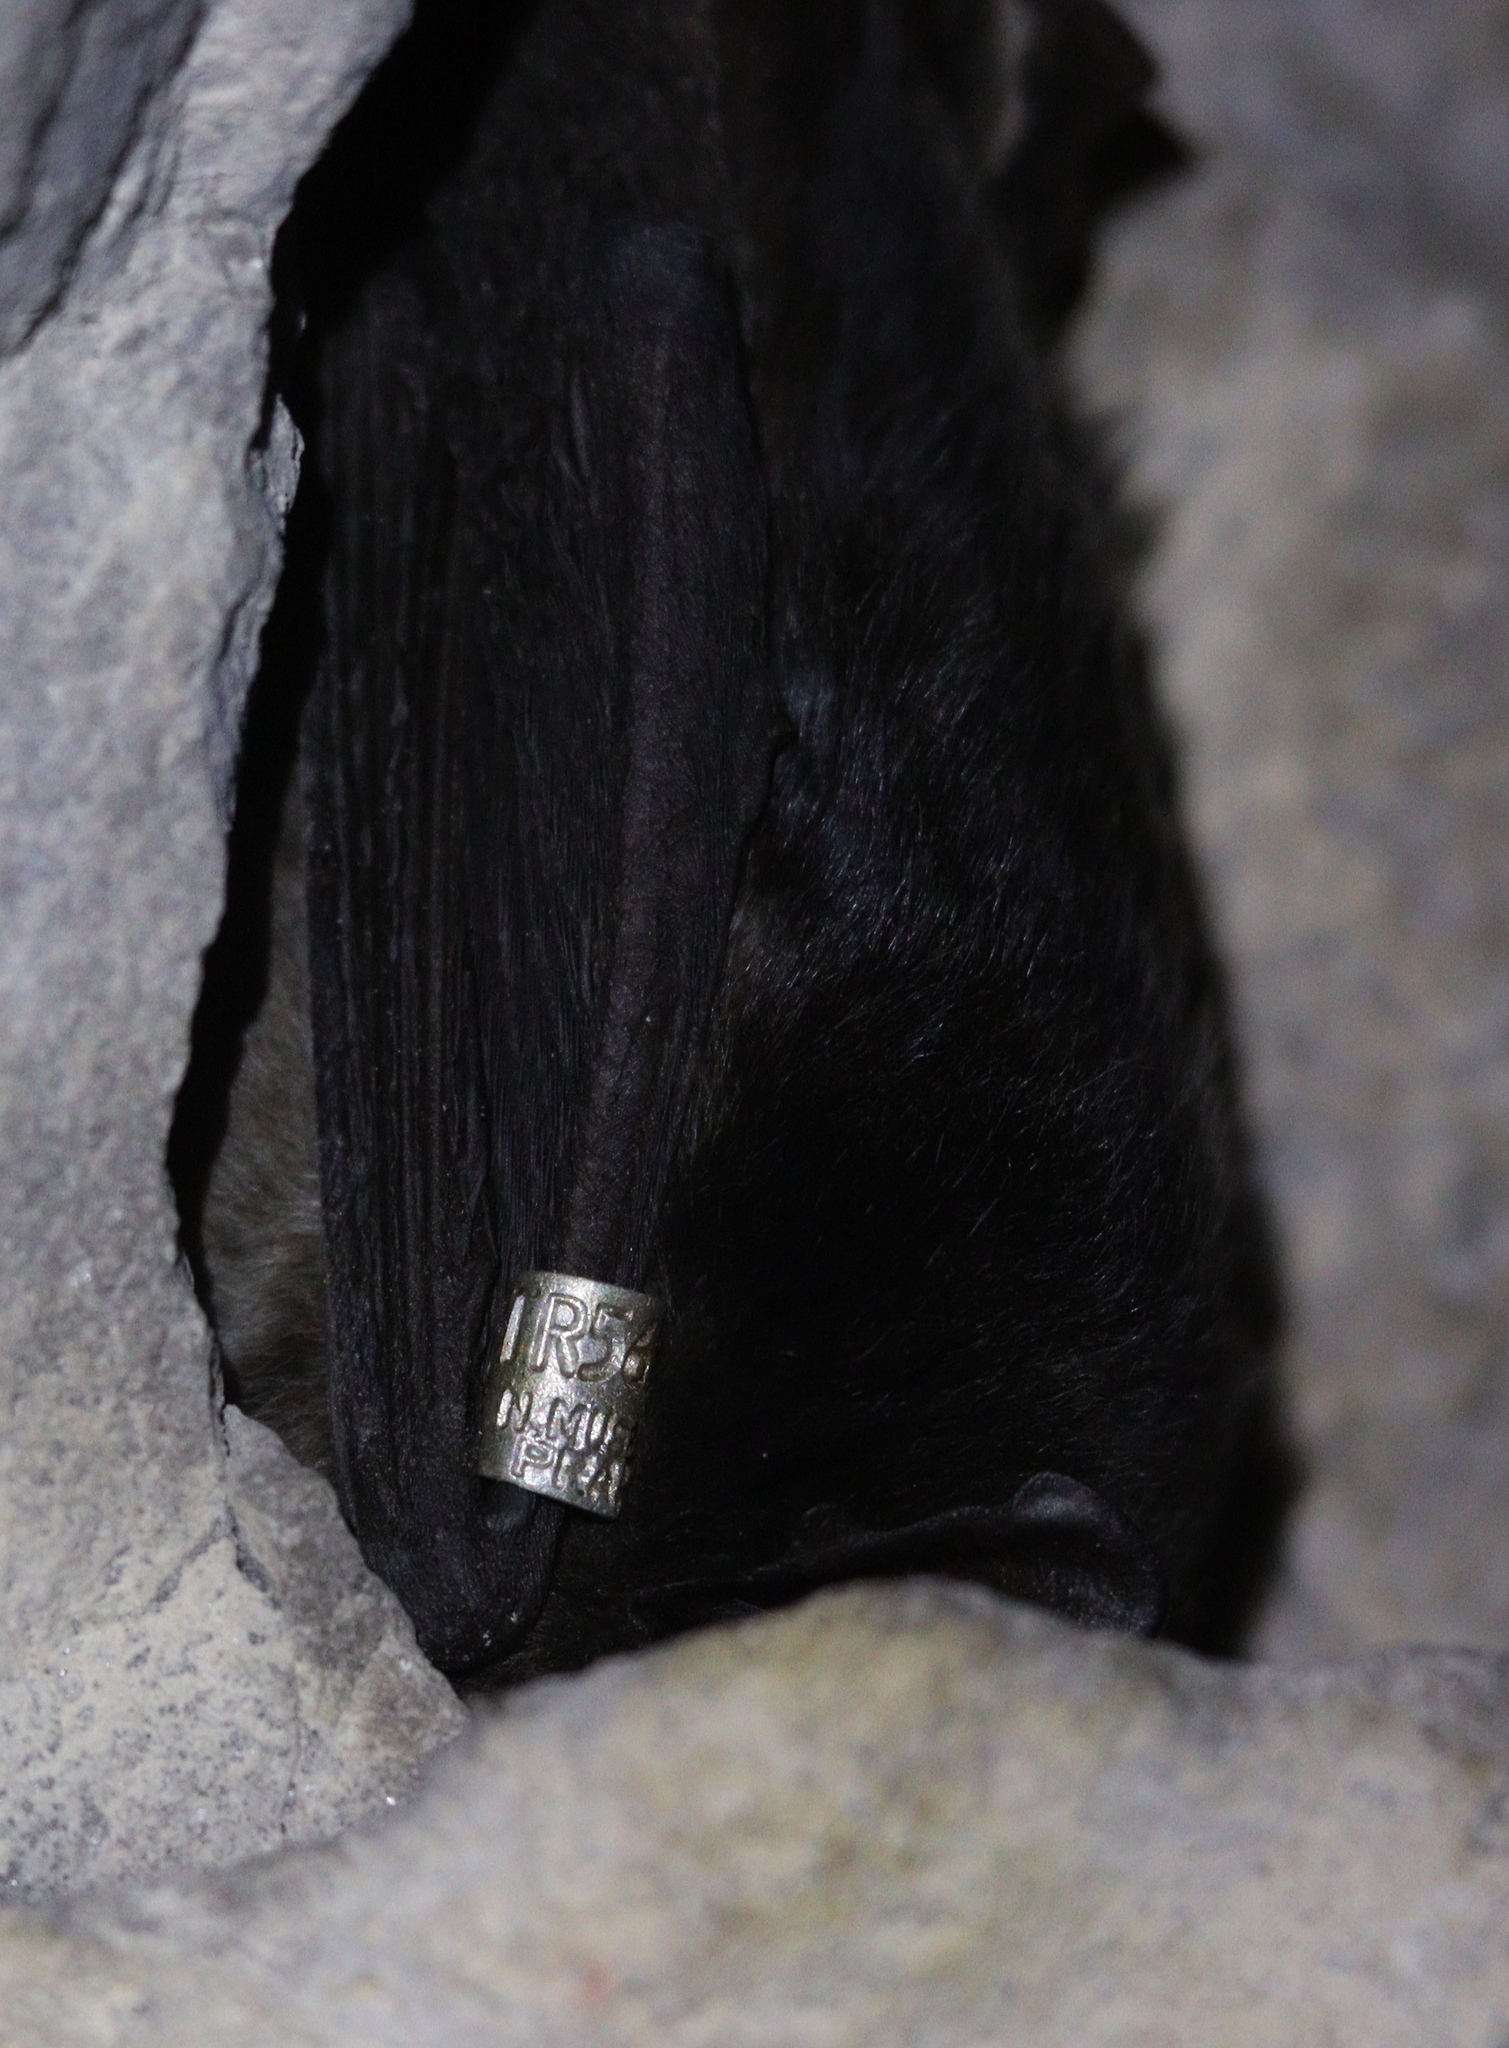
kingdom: Animalia
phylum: Chordata
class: Mammalia
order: Chiroptera
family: Vespertilionidae
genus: Barbastella
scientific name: Barbastella barbastellus
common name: Western barbastelle
